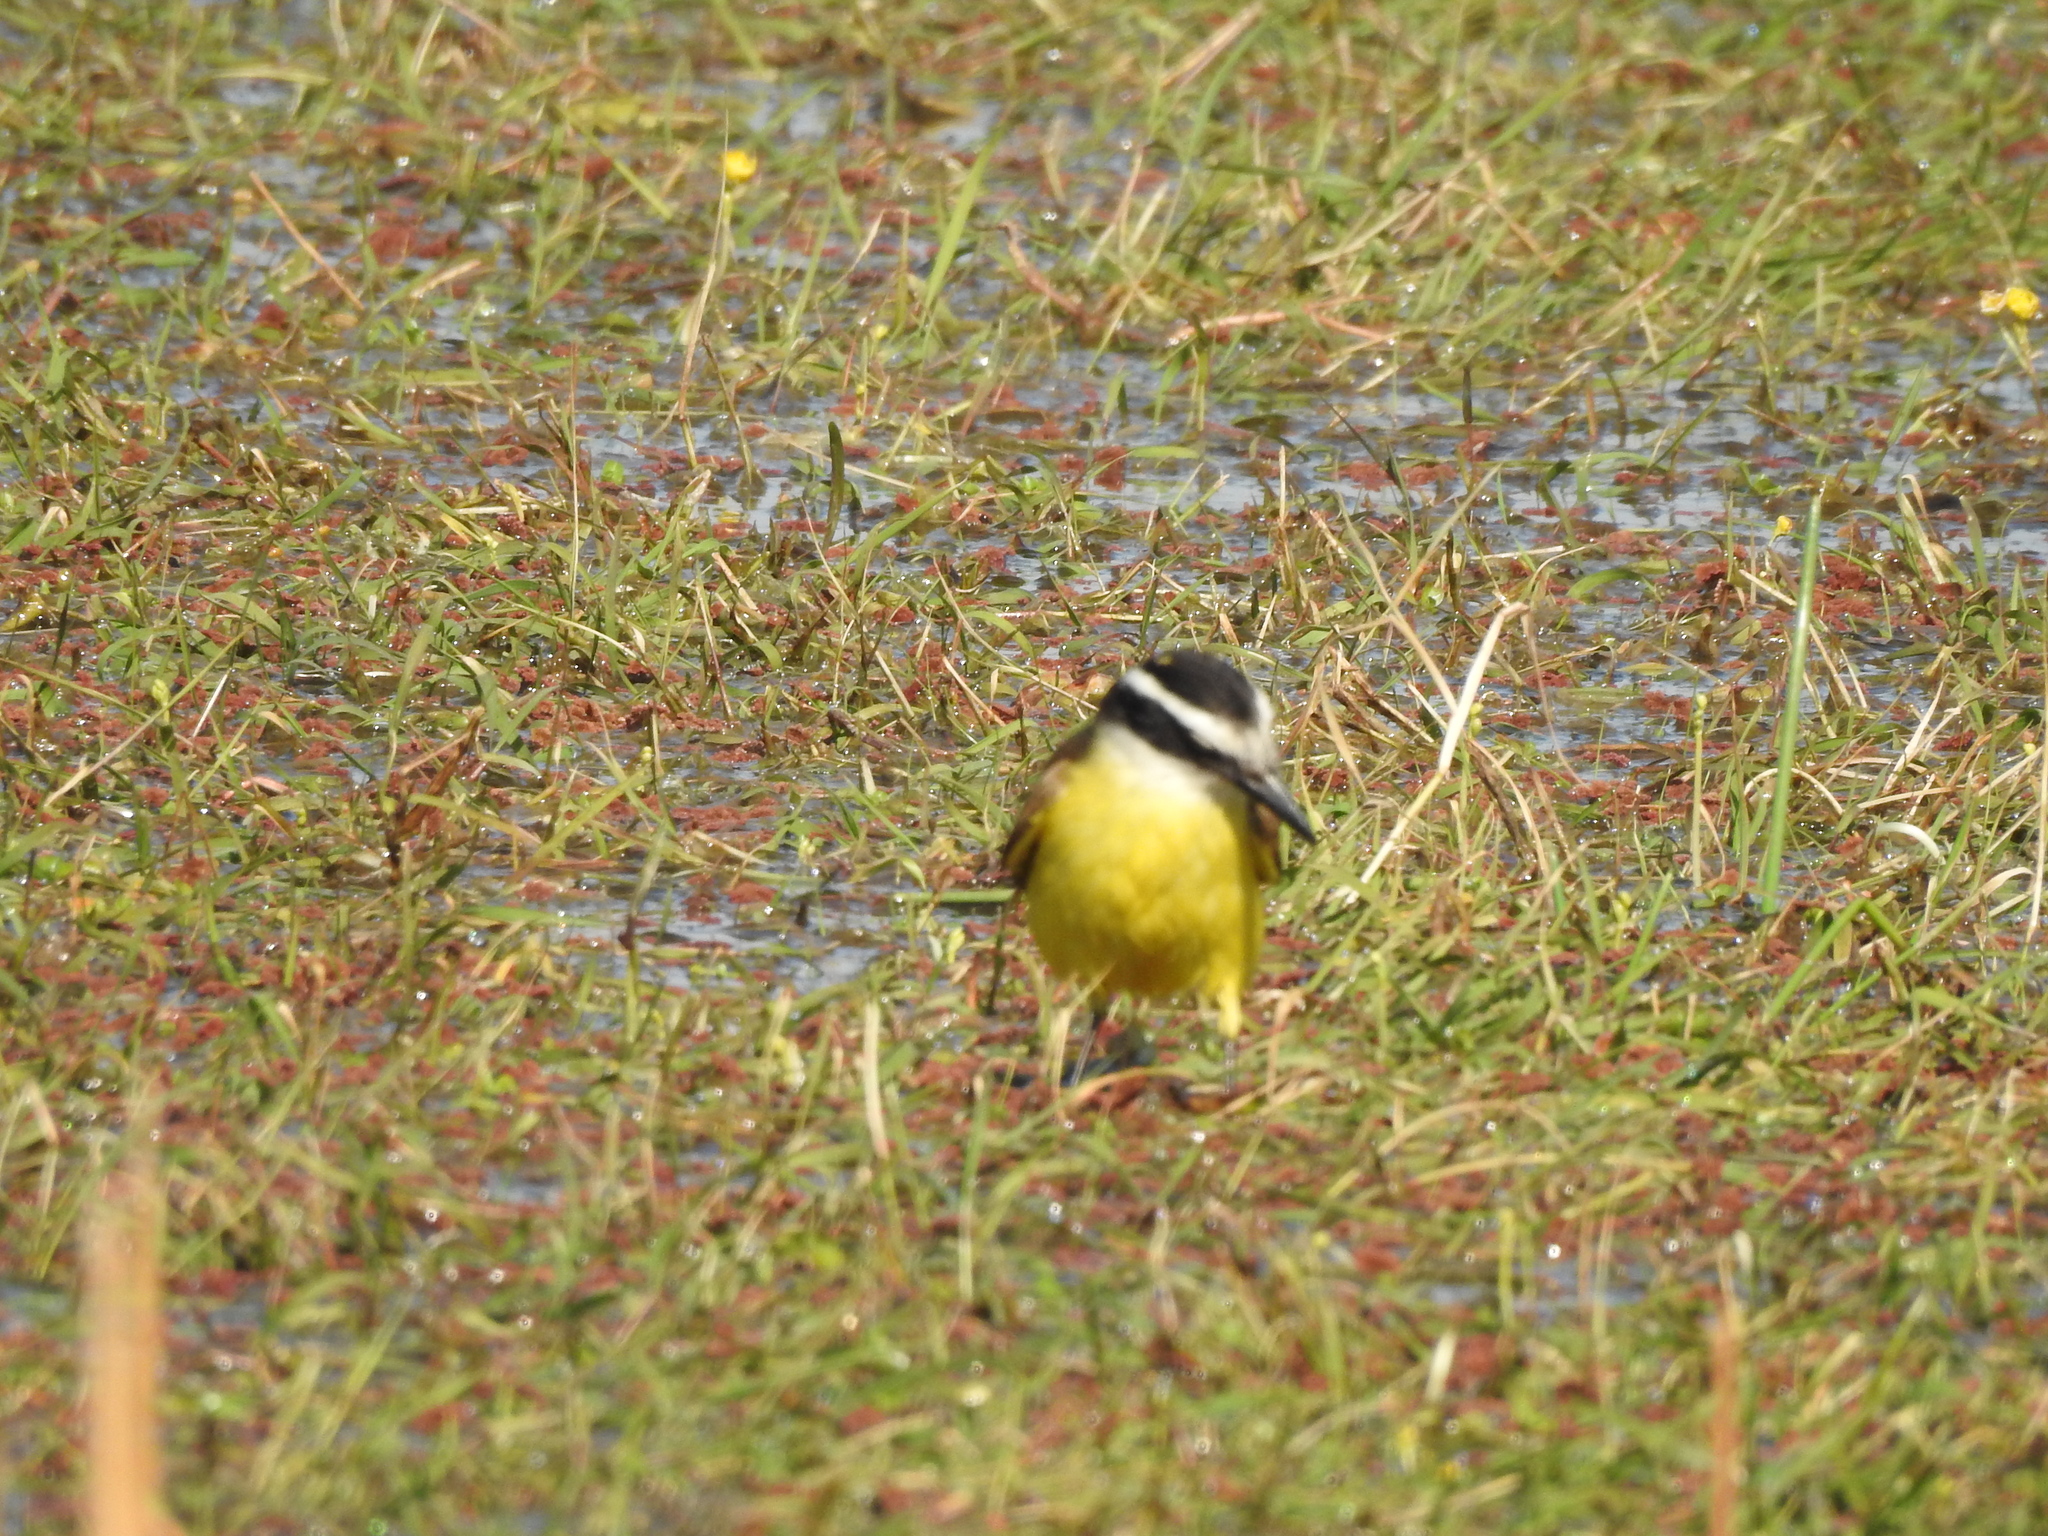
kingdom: Animalia
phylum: Chordata
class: Aves
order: Passeriformes
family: Tyrannidae
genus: Pitangus
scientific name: Pitangus sulphuratus
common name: Great kiskadee
